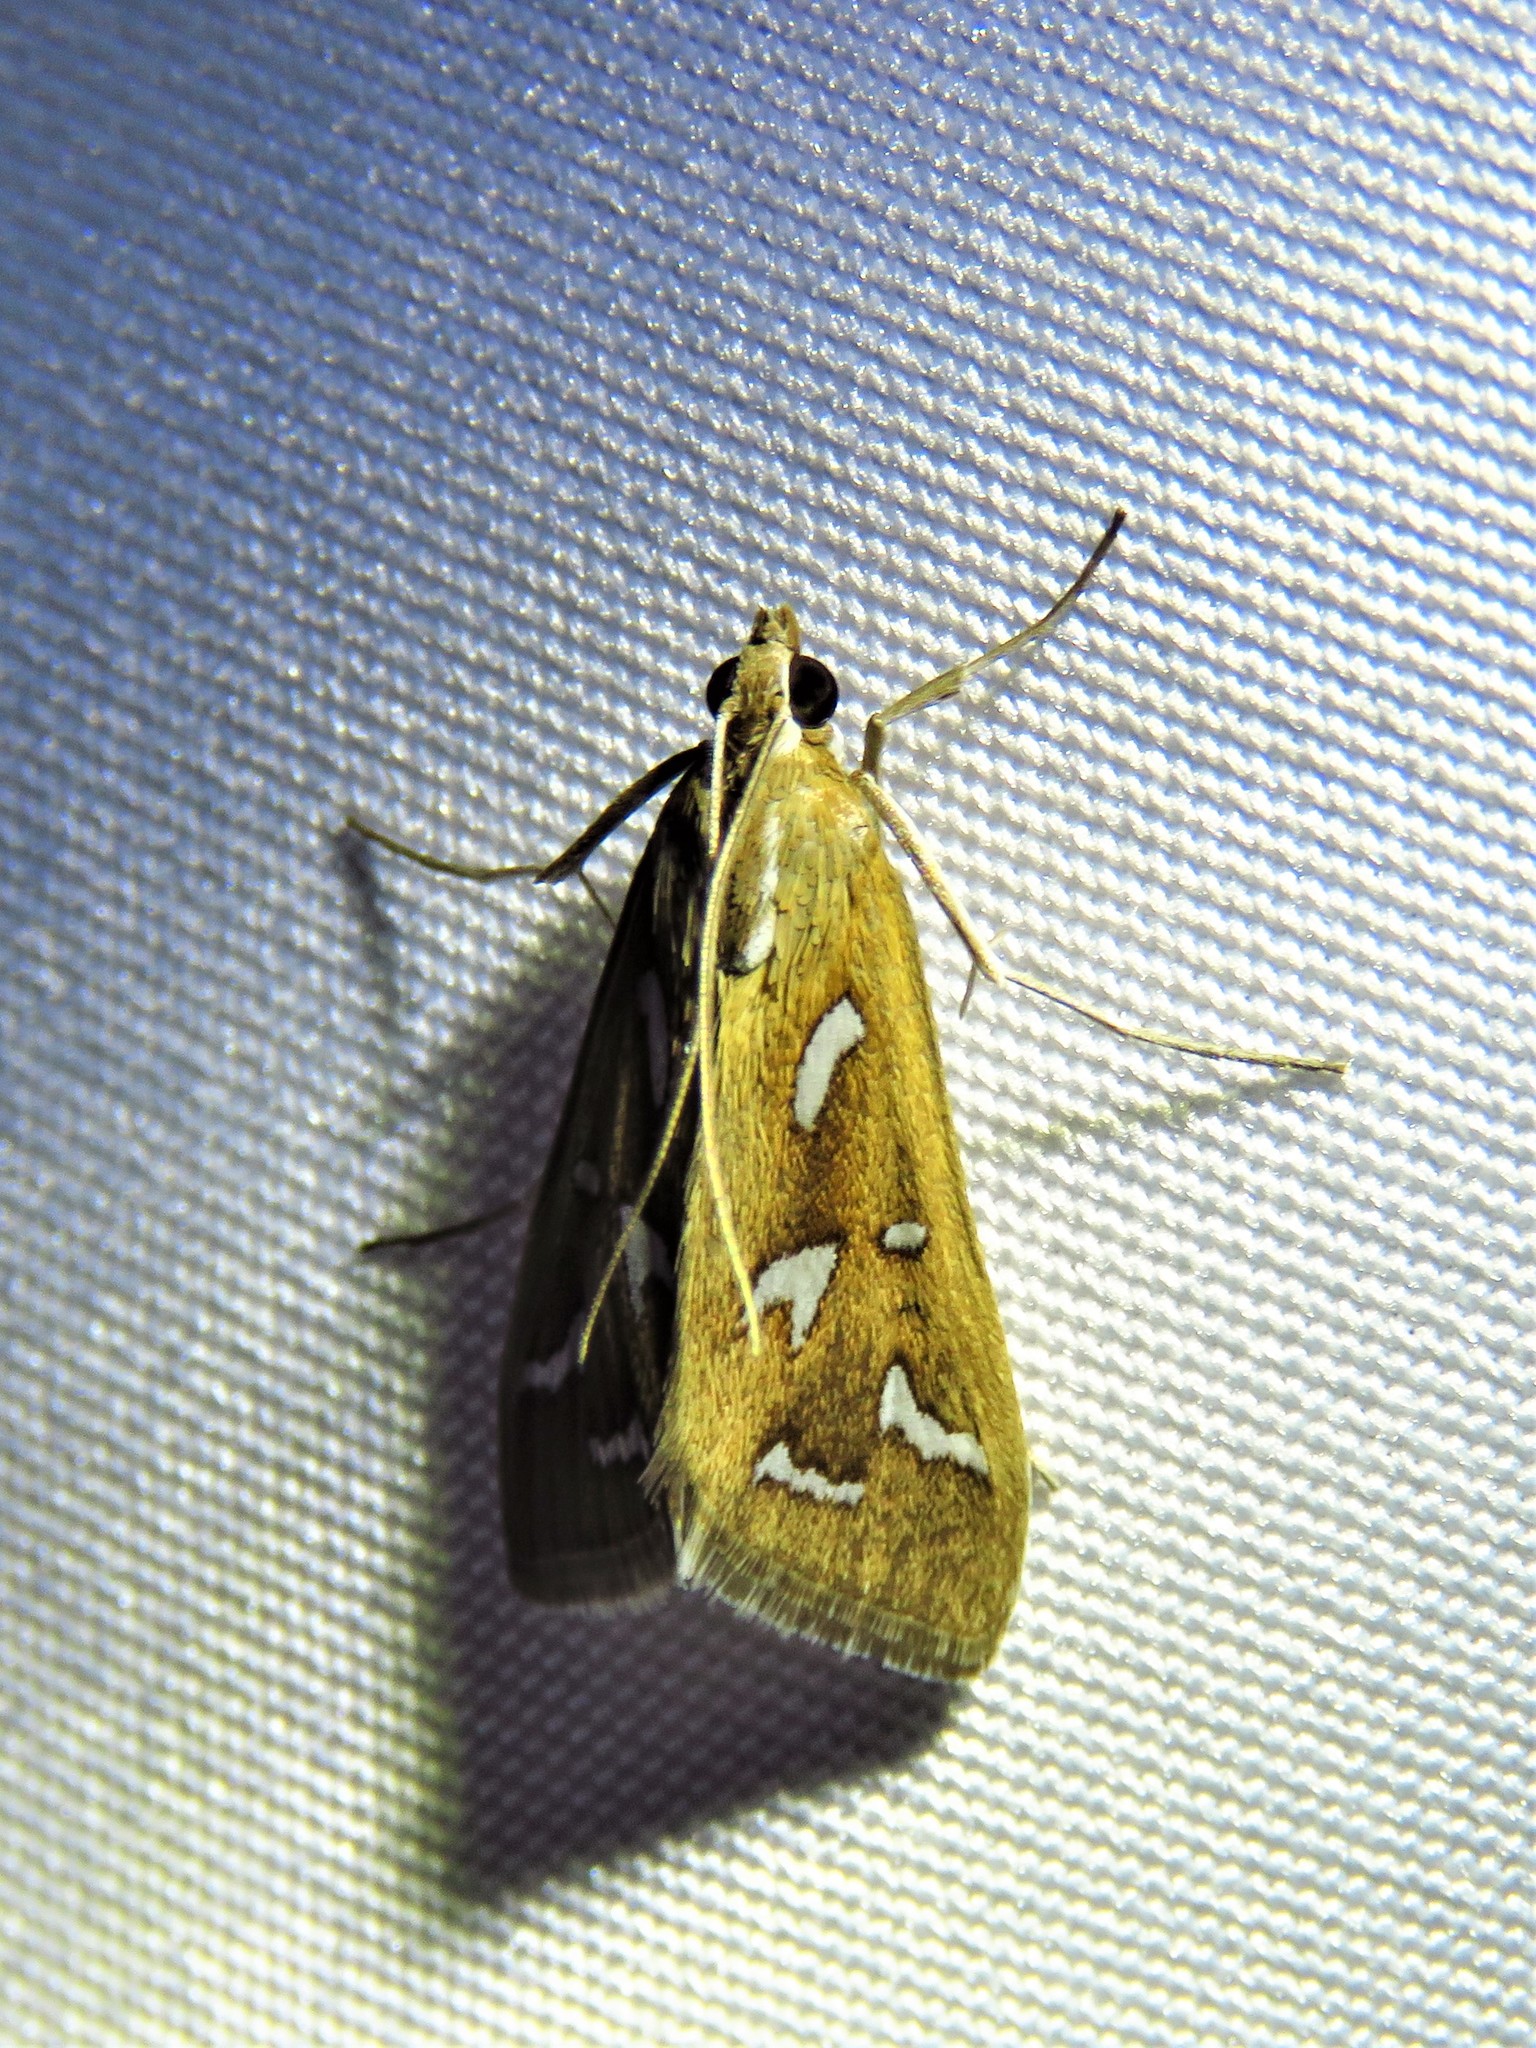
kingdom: Animalia
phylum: Arthropoda
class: Insecta
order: Lepidoptera
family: Crambidae
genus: Diastictis
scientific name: Diastictis fracturalis
